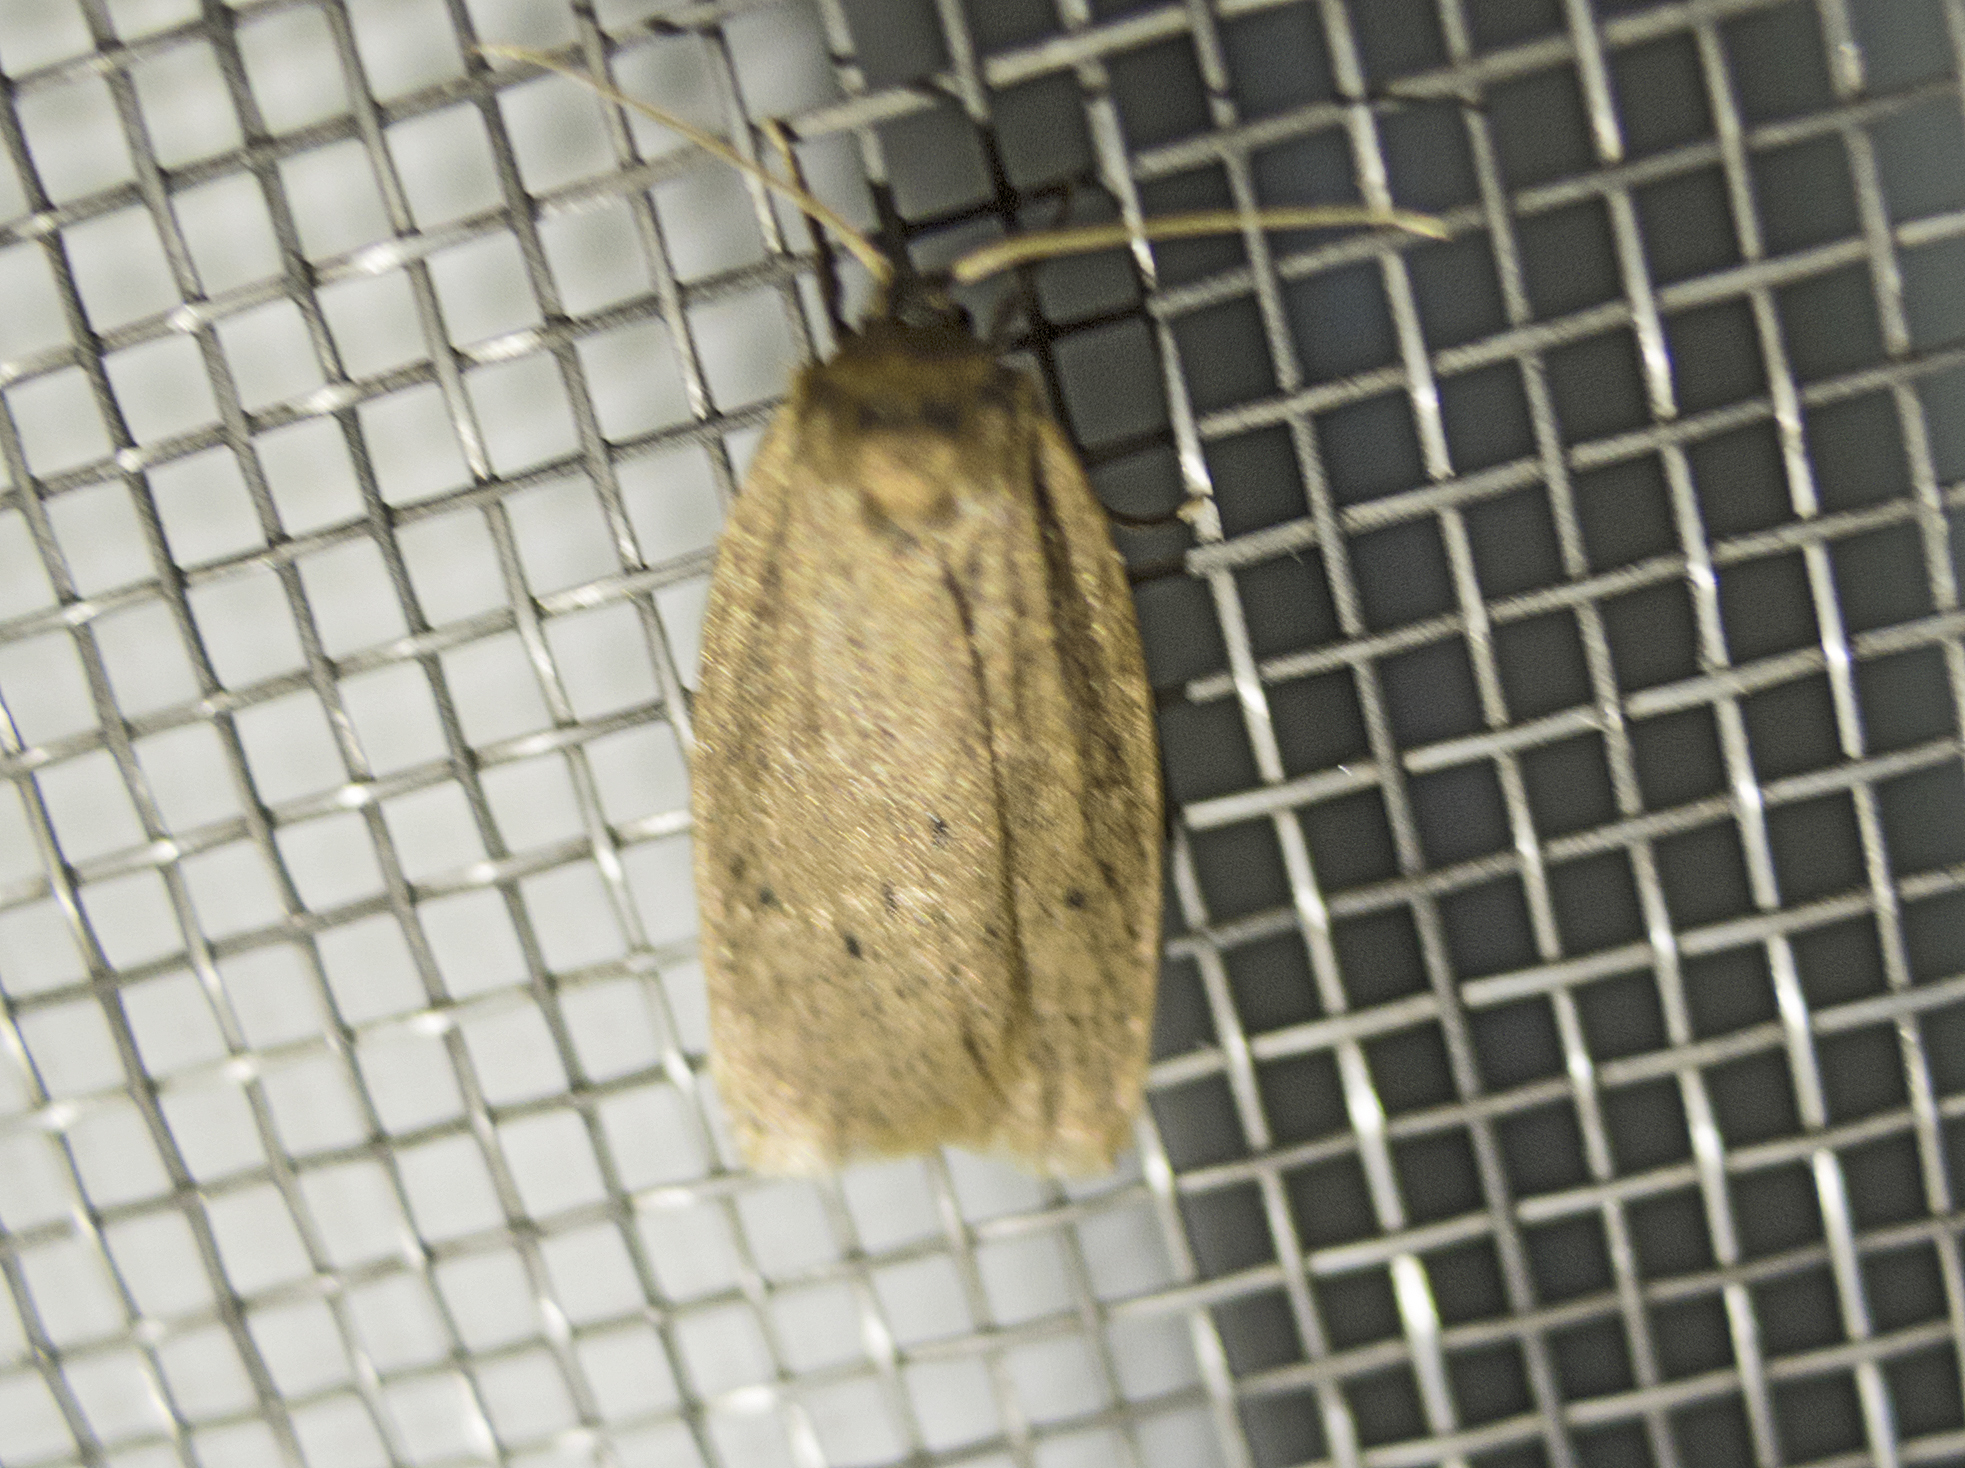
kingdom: Animalia
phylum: Arthropoda
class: Insecta
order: Lepidoptera
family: Erebidae
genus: Pelosia
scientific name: Pelosia obtusa
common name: Small dotted footman
